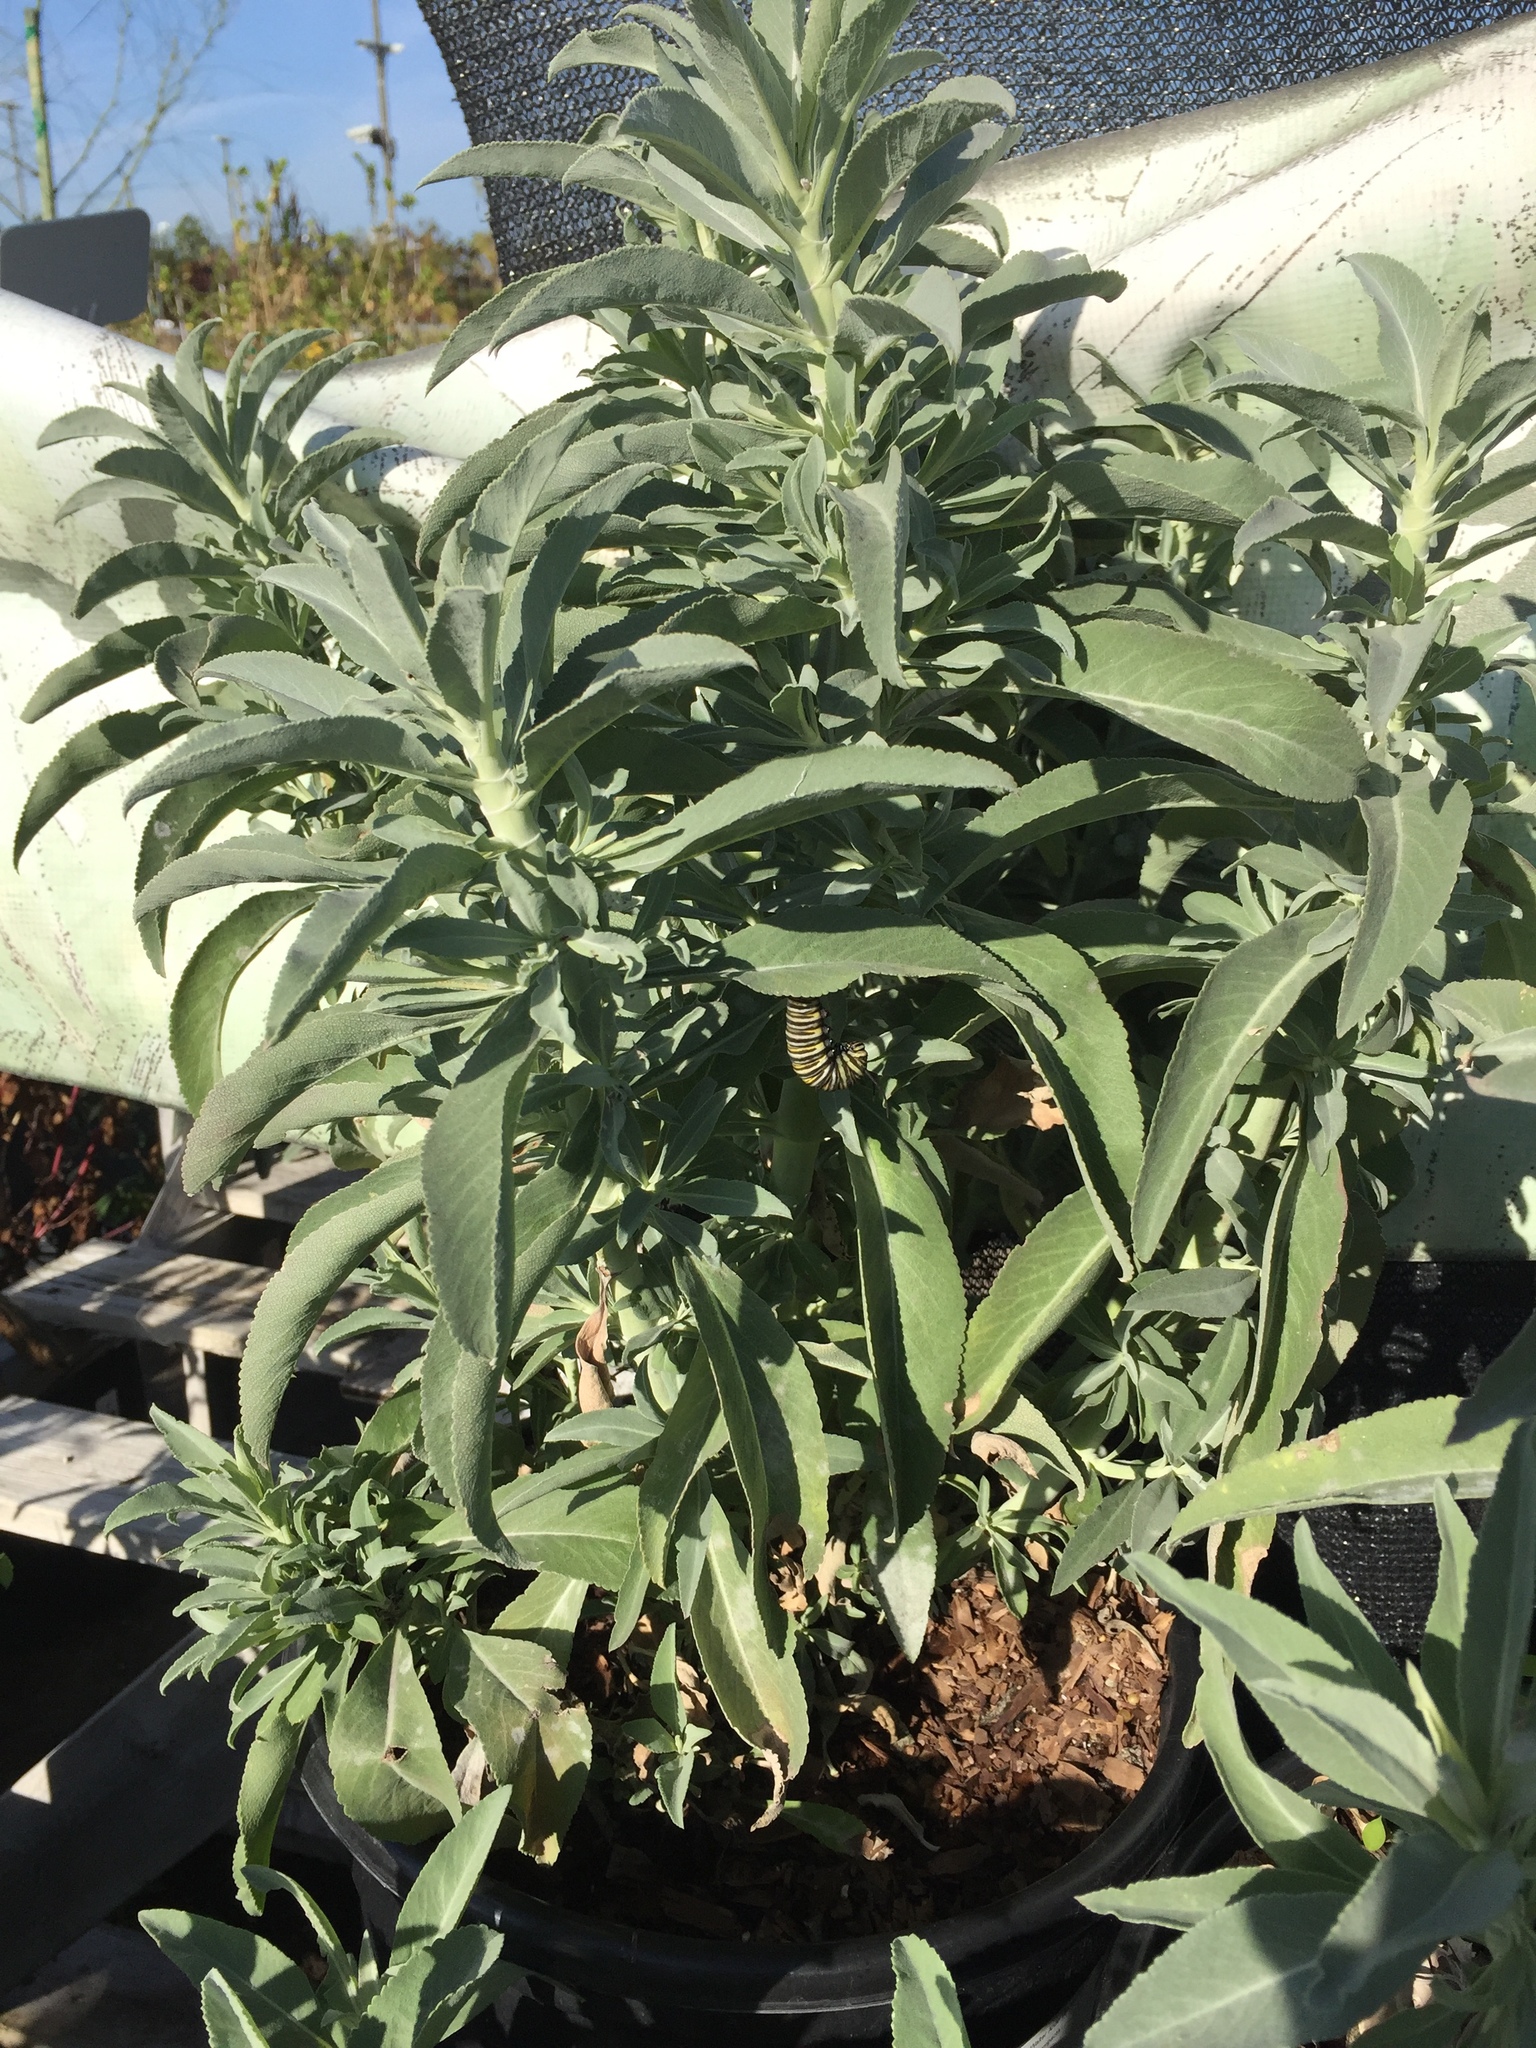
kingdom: Animalia
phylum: Arthropoda
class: Insecta
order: Lepidoptera
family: Nymphalidae
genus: Danaus
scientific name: Danaus plexippus
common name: Monarch
